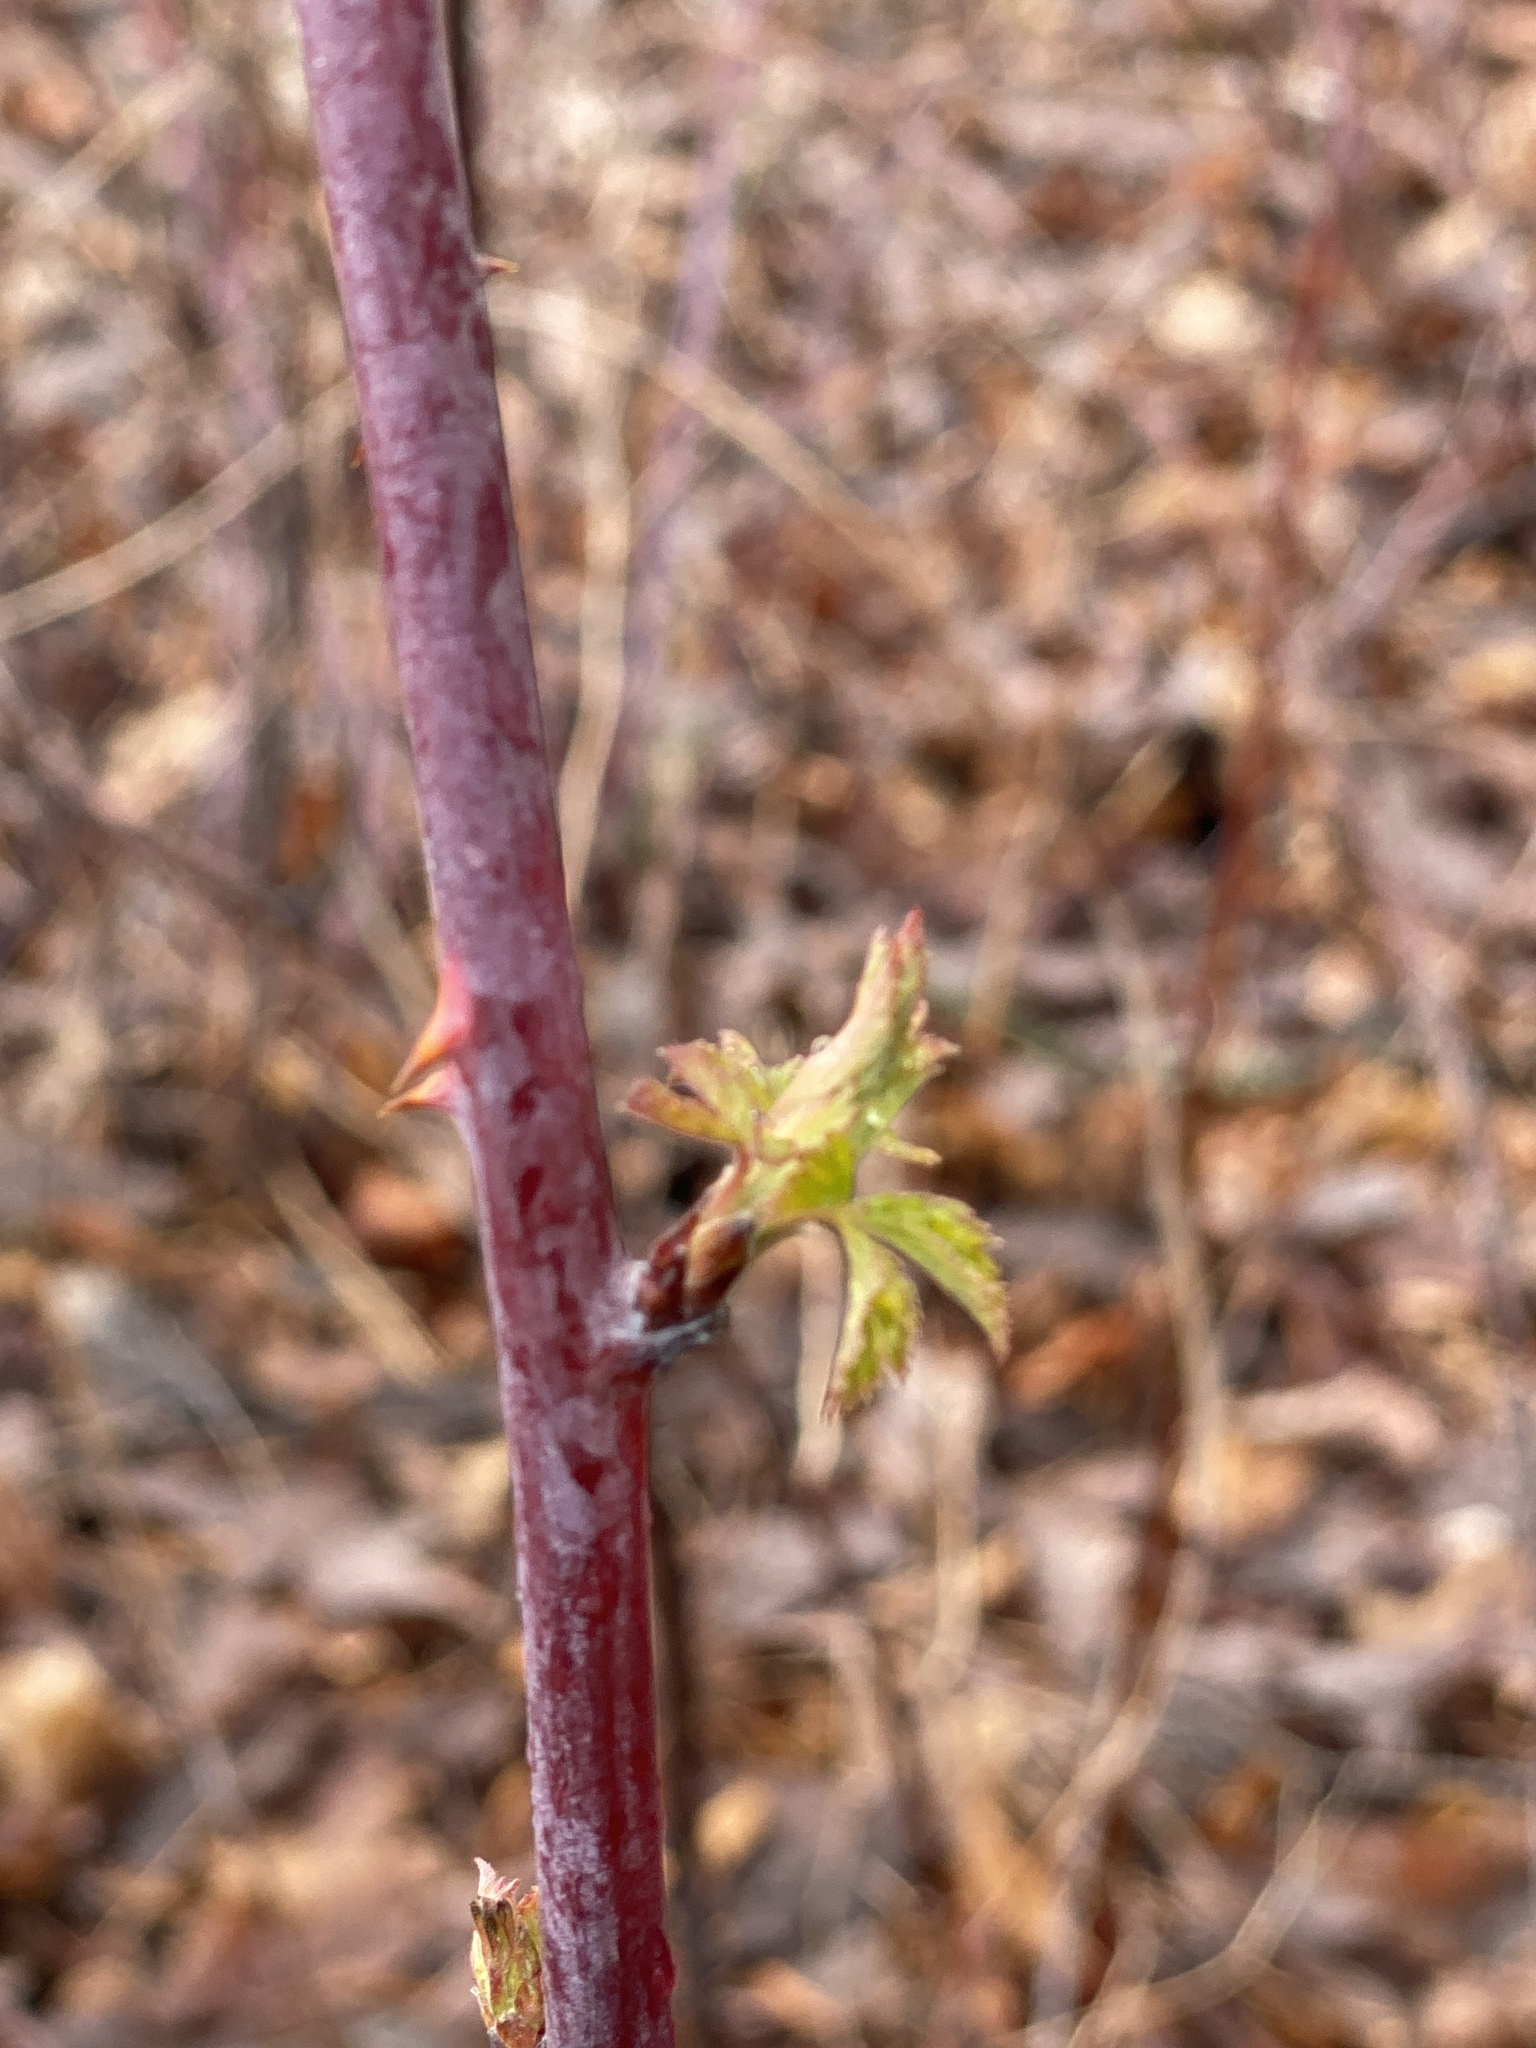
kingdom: Plantae
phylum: Tracheophyta
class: Magnoliopsida
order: Rosales
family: Rosaceae
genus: Rubus
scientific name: Rubus occidentalis
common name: Black raspberry
